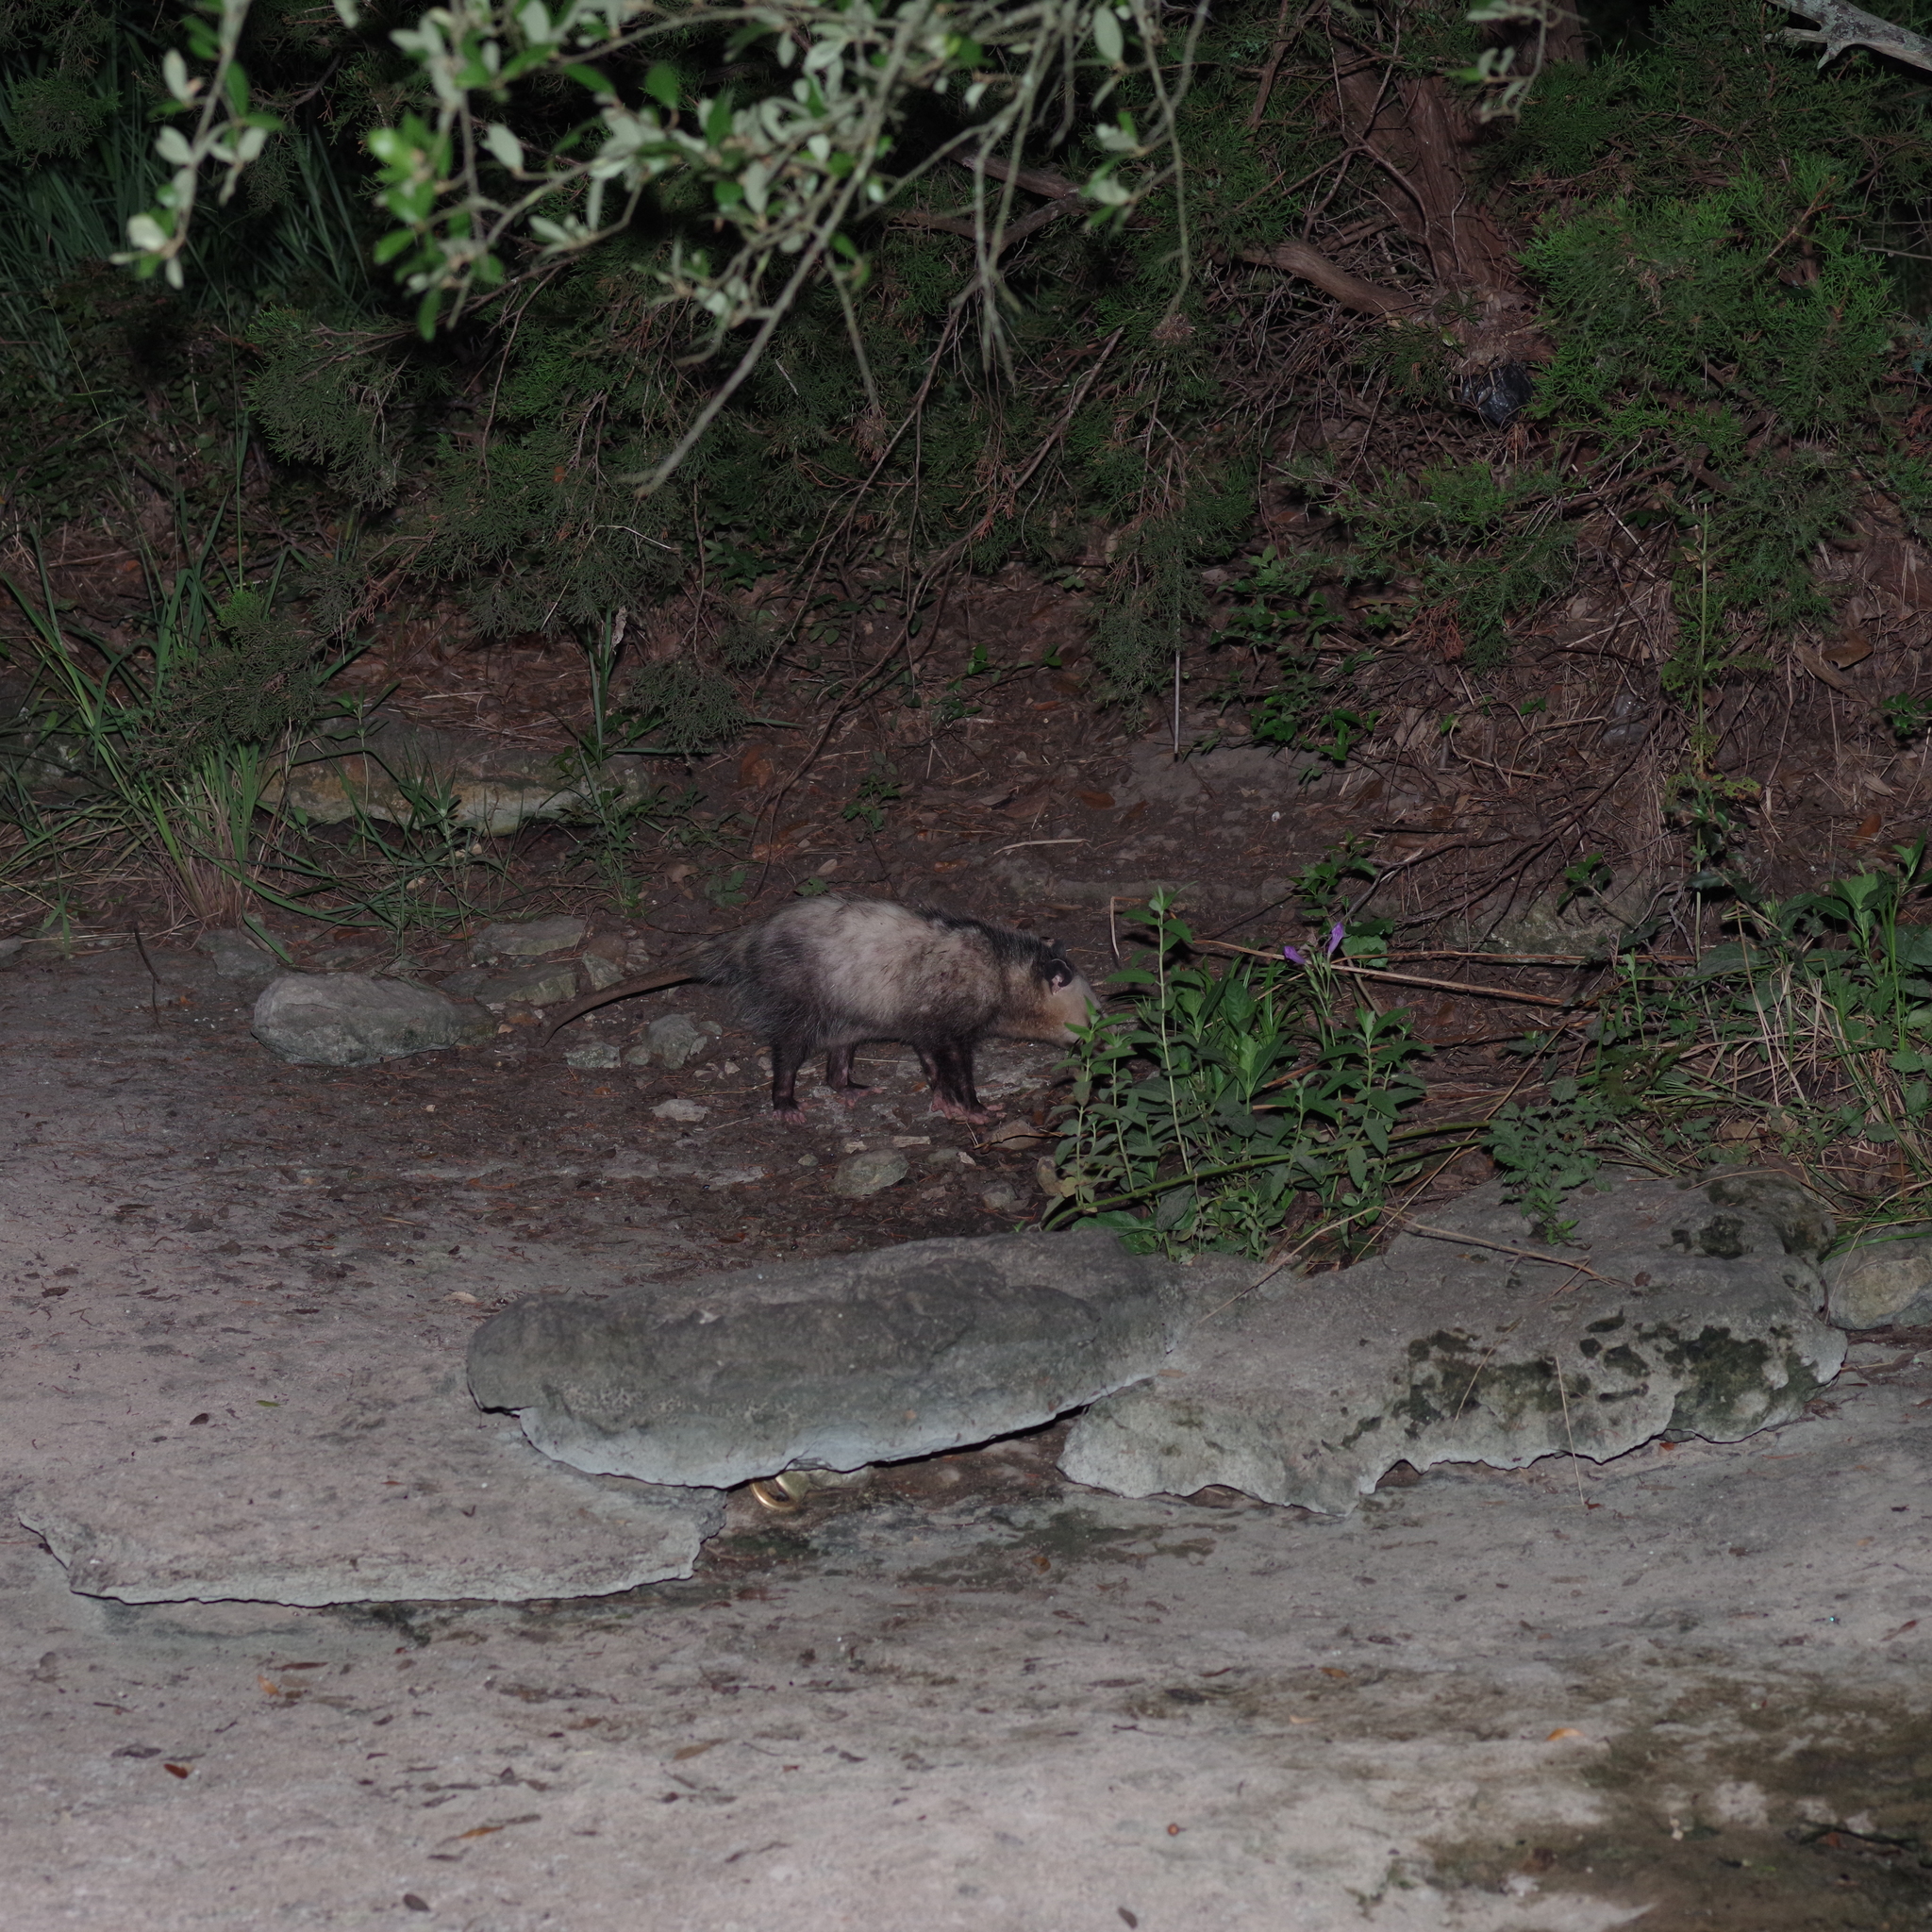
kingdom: Animalia
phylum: Chordata
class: Mammalia
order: Didelphimorphia
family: Didelphidae
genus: Didelphis
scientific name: Didelphis virginiana
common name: Virginia opossum
